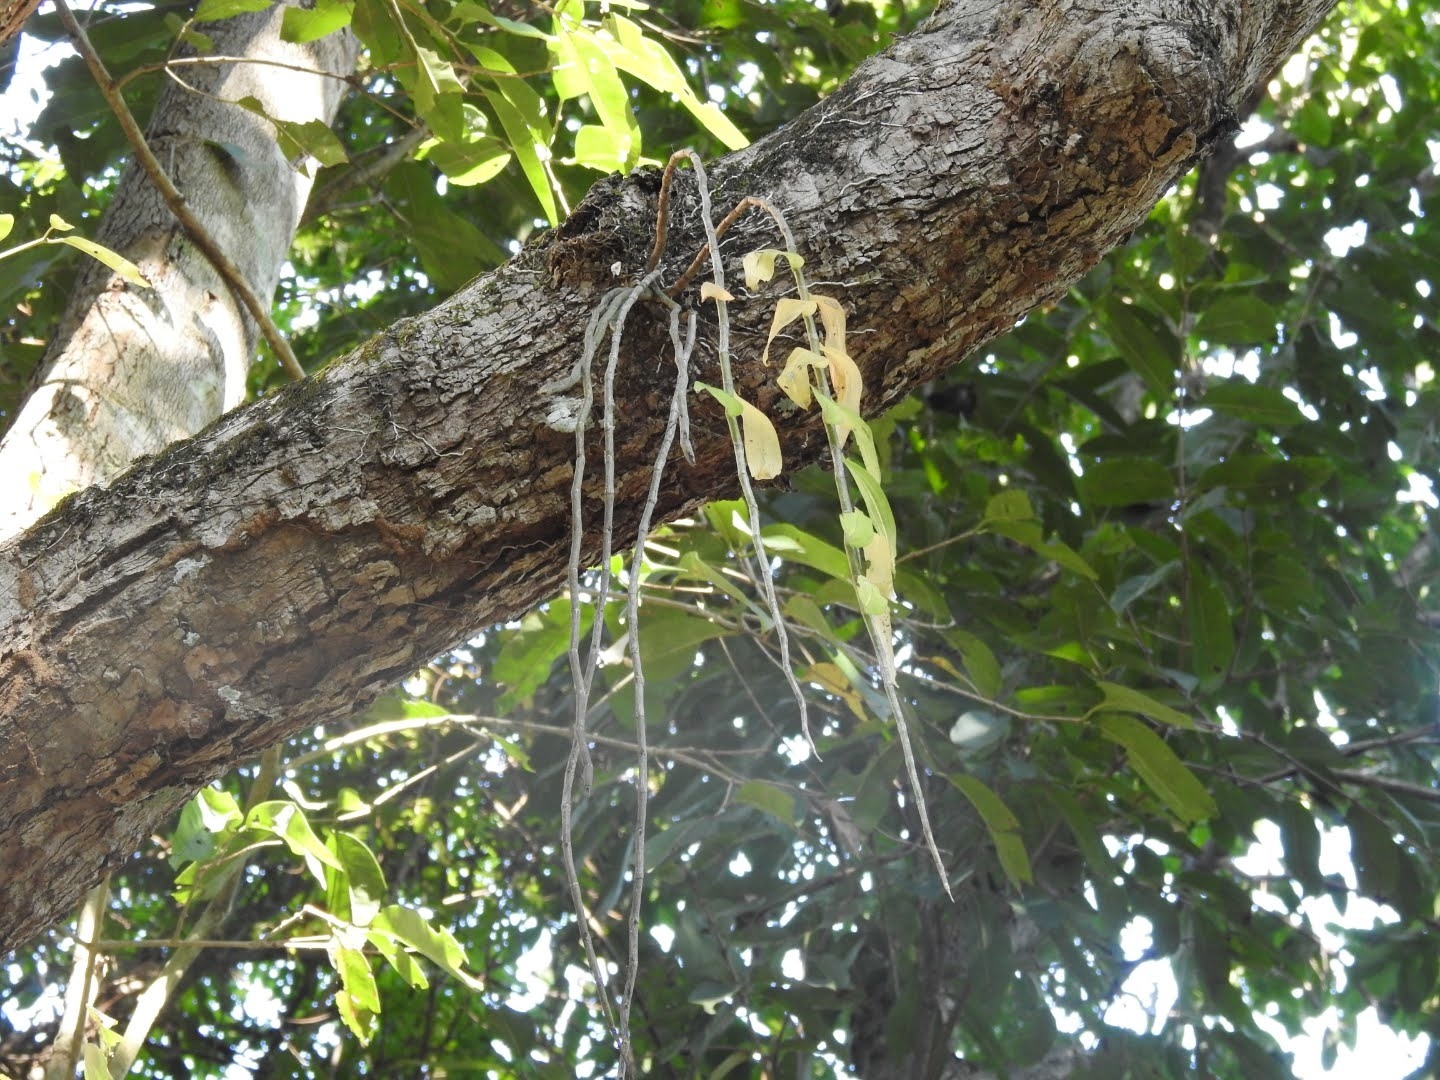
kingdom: Plantae
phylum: Tracheophyta
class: Liliopsida
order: Asparagales
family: Orchidaceae
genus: Dendrobium
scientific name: Dendrobium aphyllum
